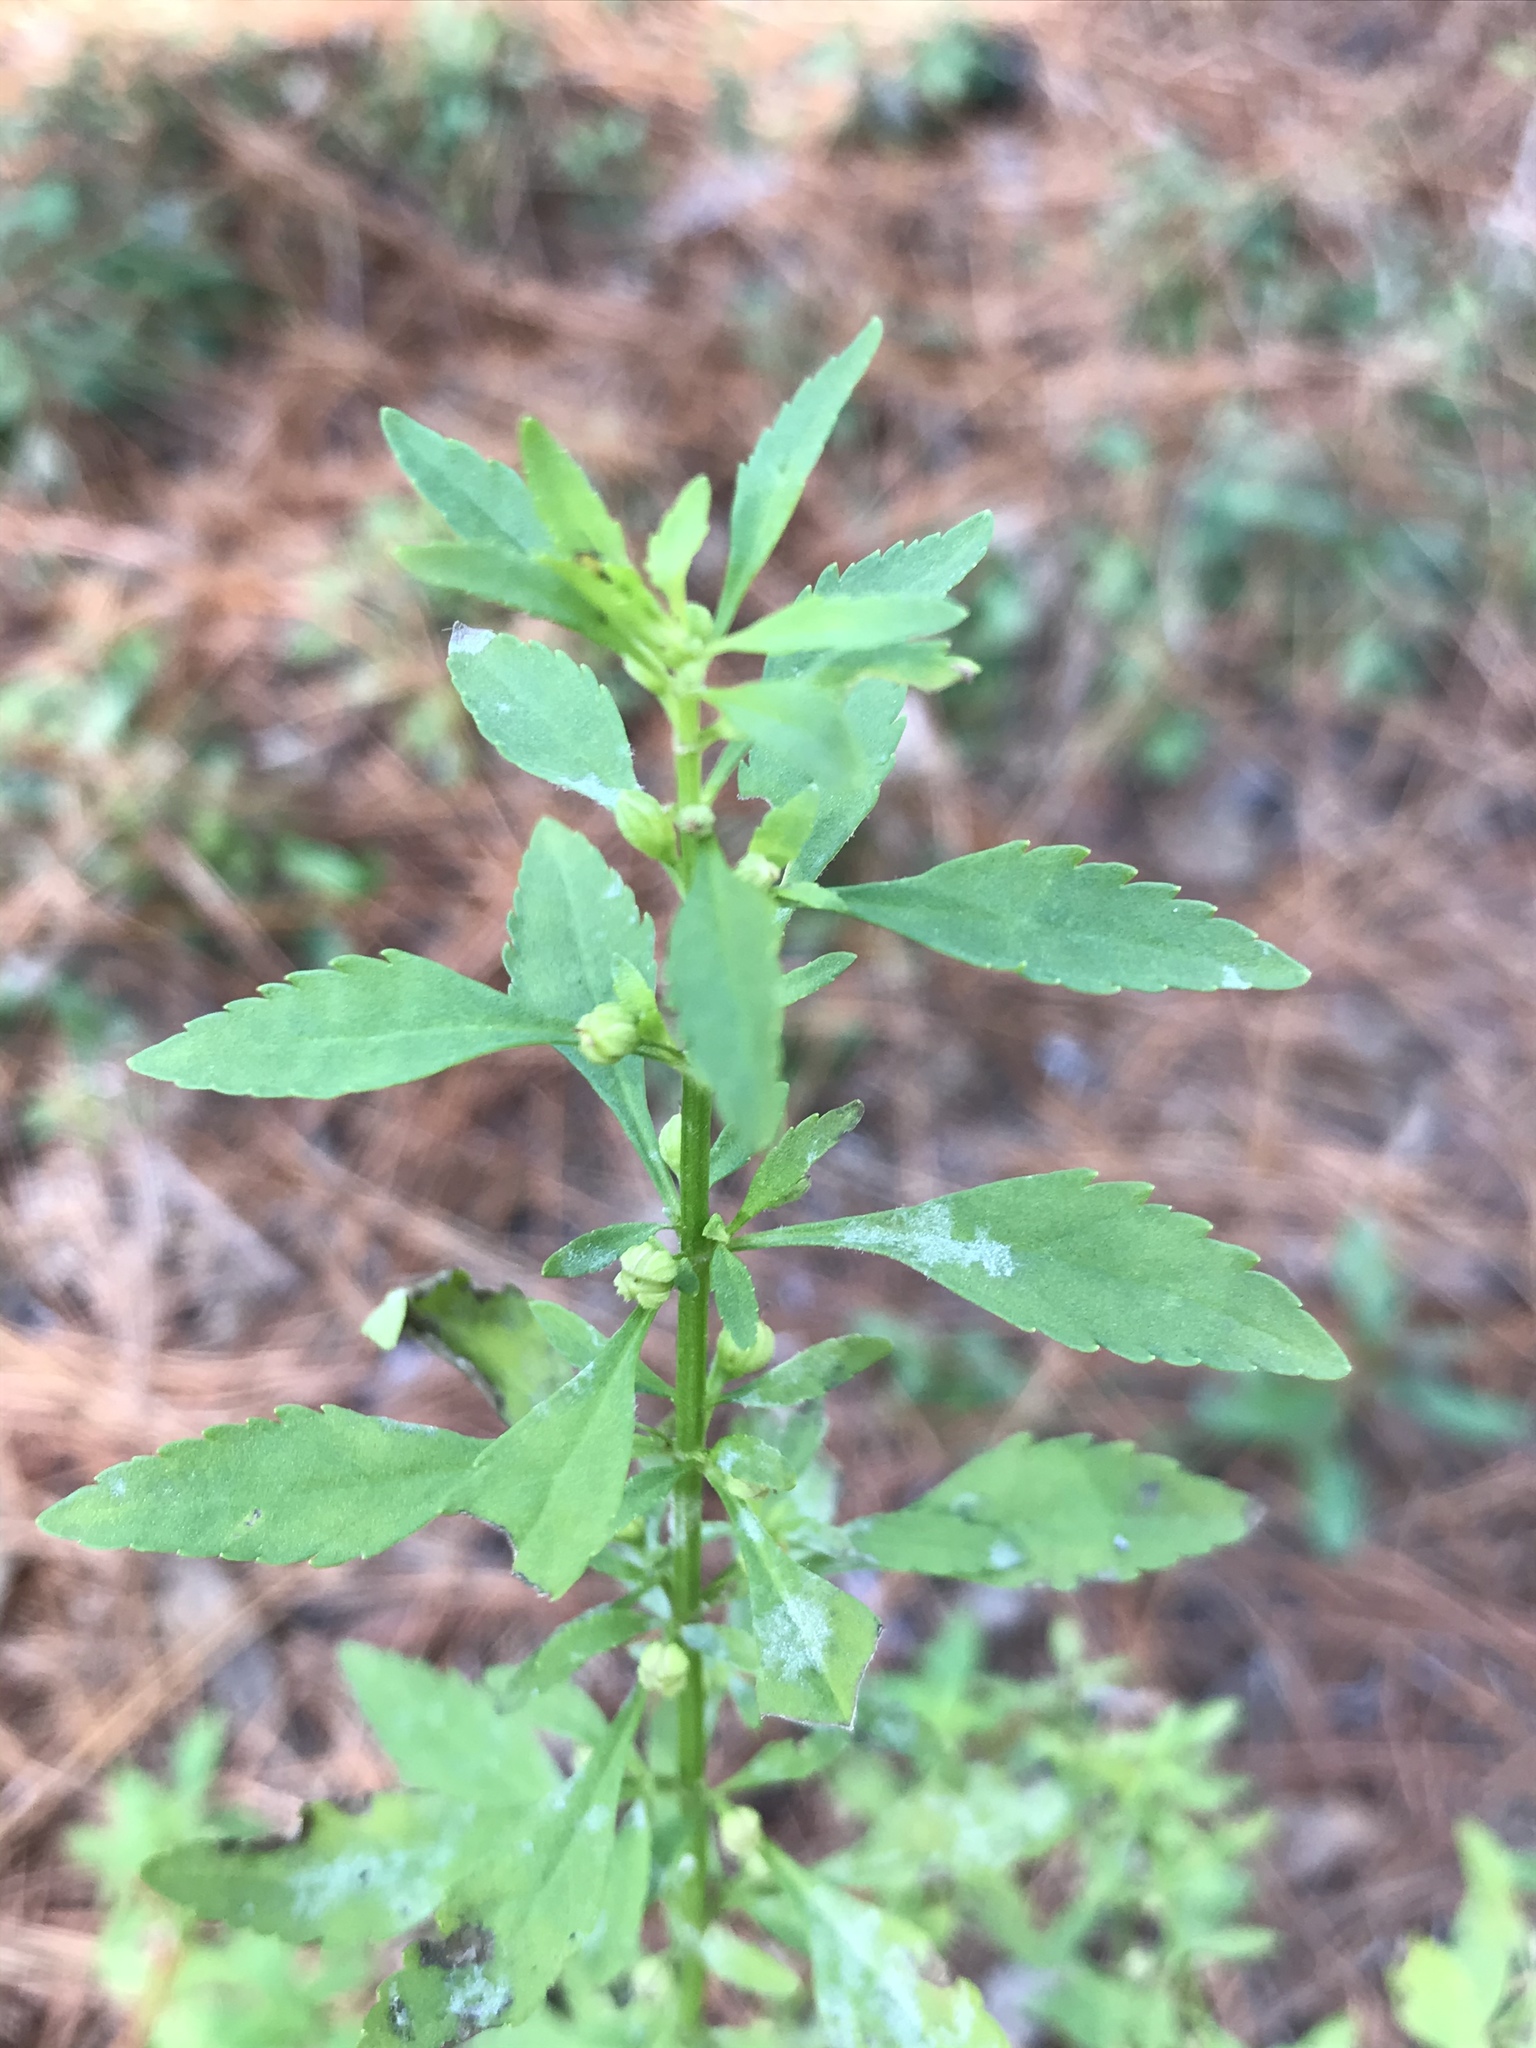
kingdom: Plantae
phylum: Tracheophyta
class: Magnoliopsida
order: Lamiales
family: Plantaginaceae
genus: Scoparia
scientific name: Scoparia dulcis
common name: Scoparia-weed
